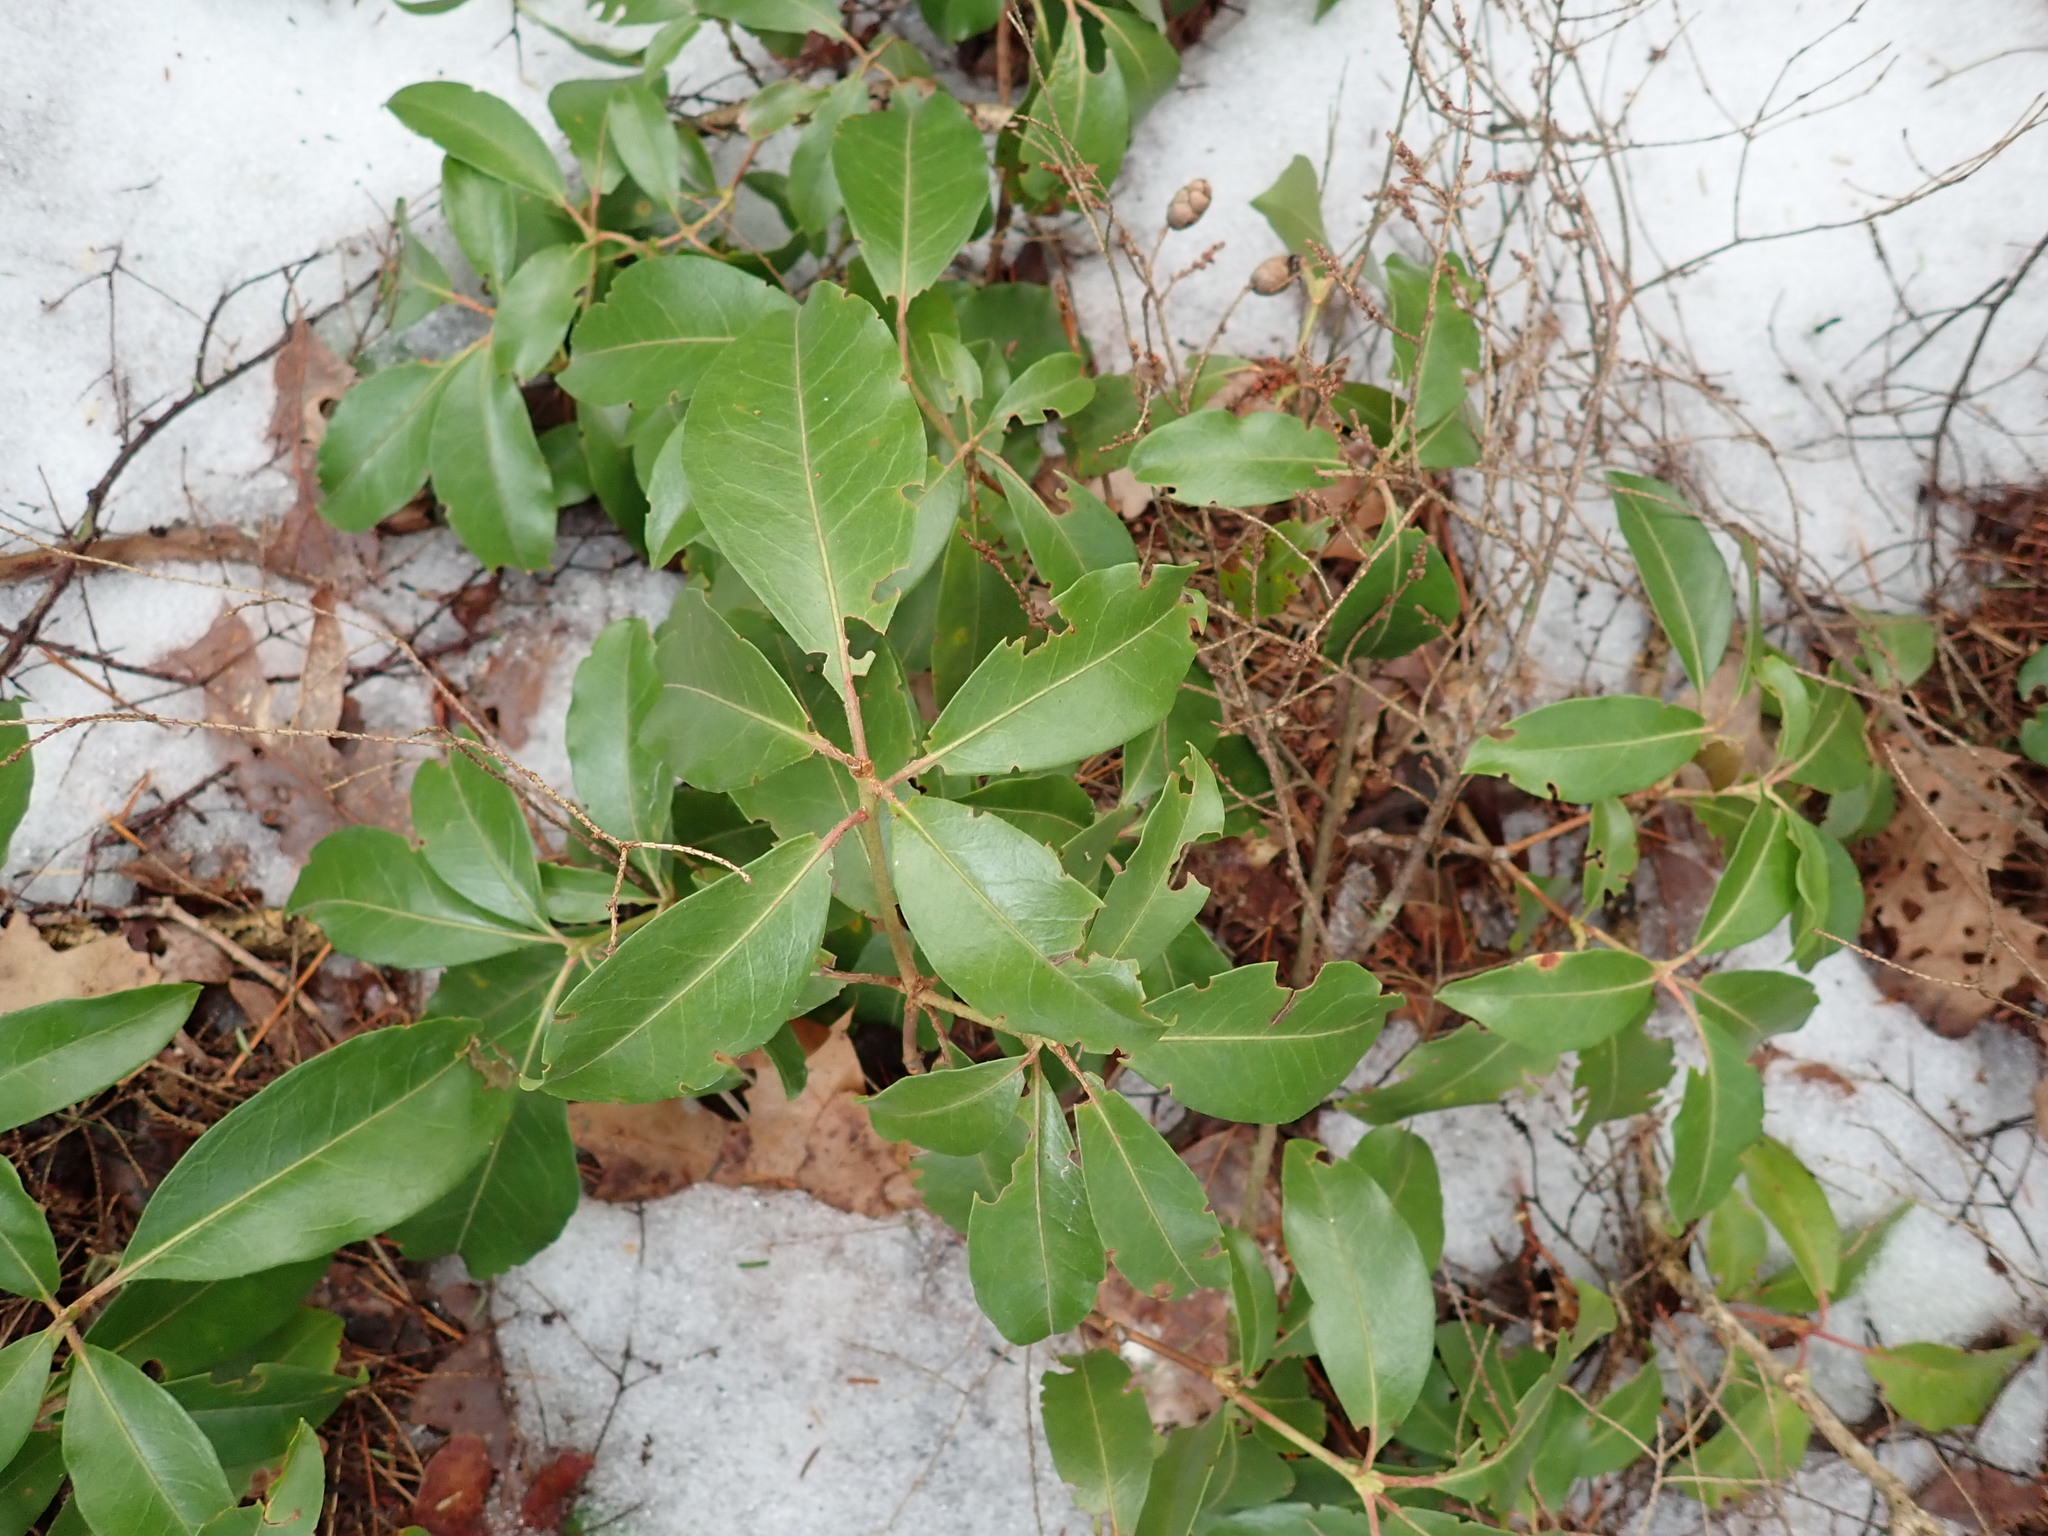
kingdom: Plantae
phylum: Tracheophyta
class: Magnoliopsida
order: Ericales
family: Ericaceae
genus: Kalmia
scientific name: Kalmia latifolia
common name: Mountain-laurel
